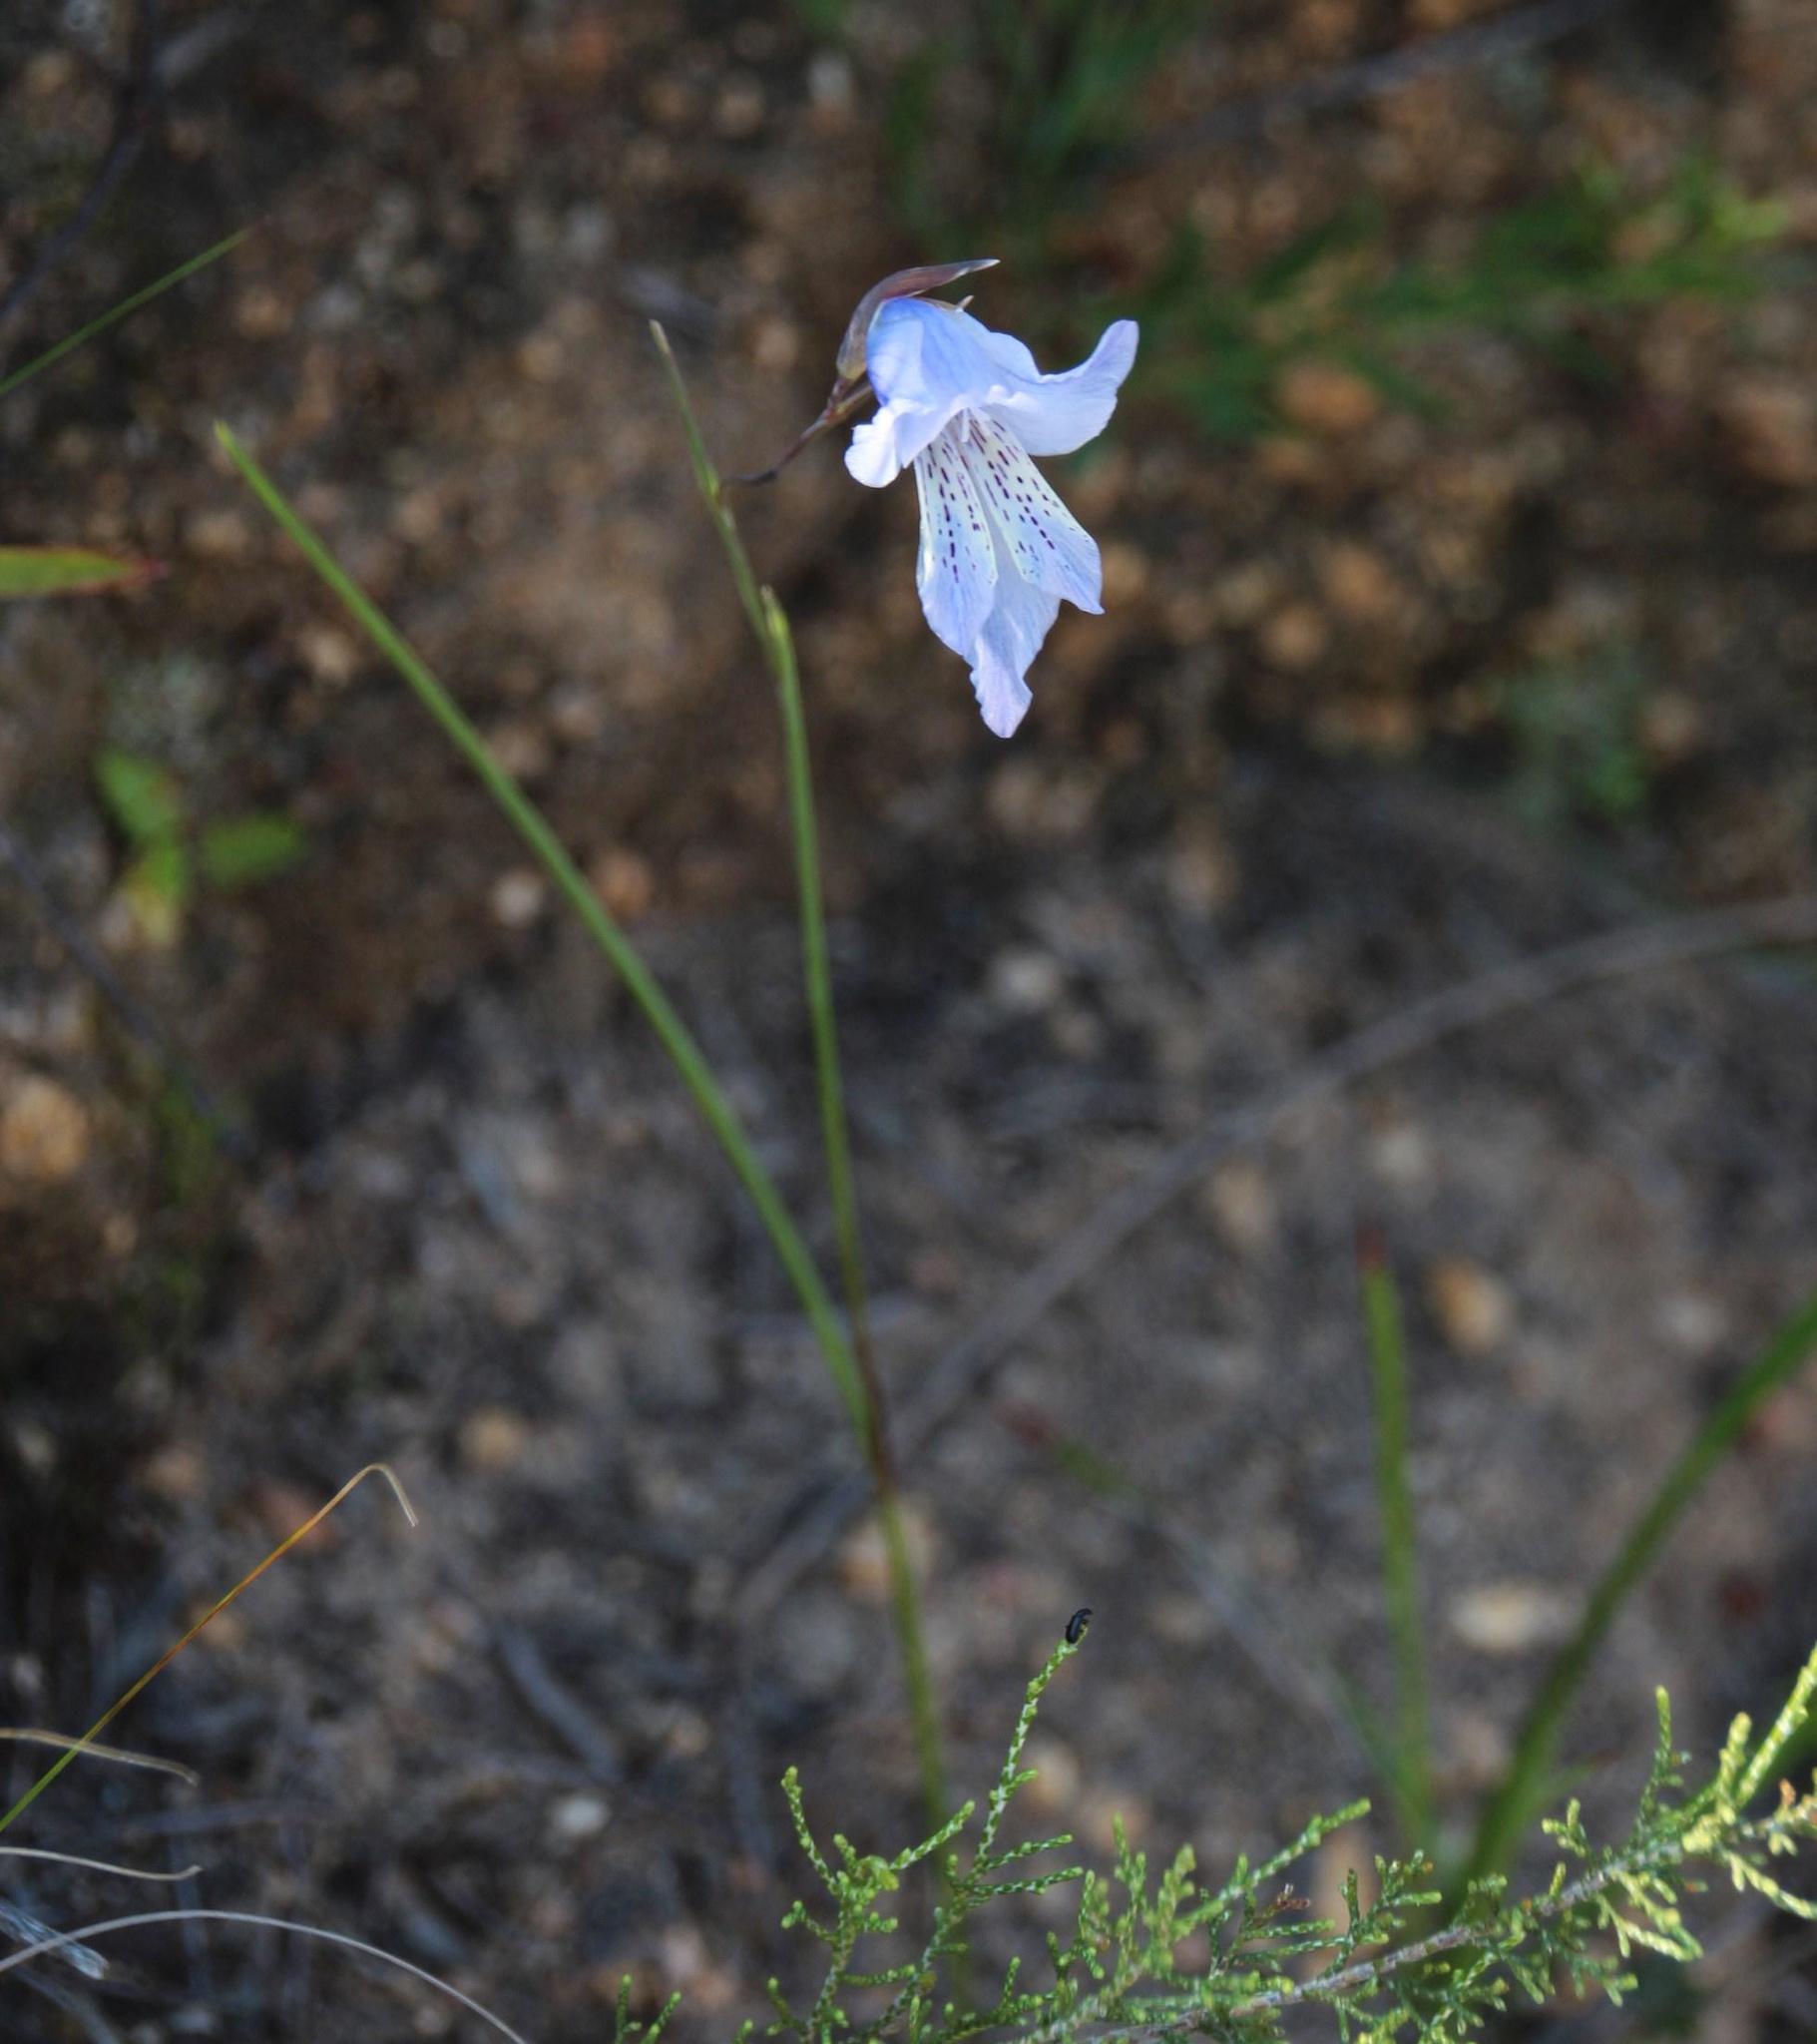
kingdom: Plantae
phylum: Tracheophyta
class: Liliopsida
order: Asparagales
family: Iridaceae
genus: Gladiolus
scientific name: Gladiolus gracilis
